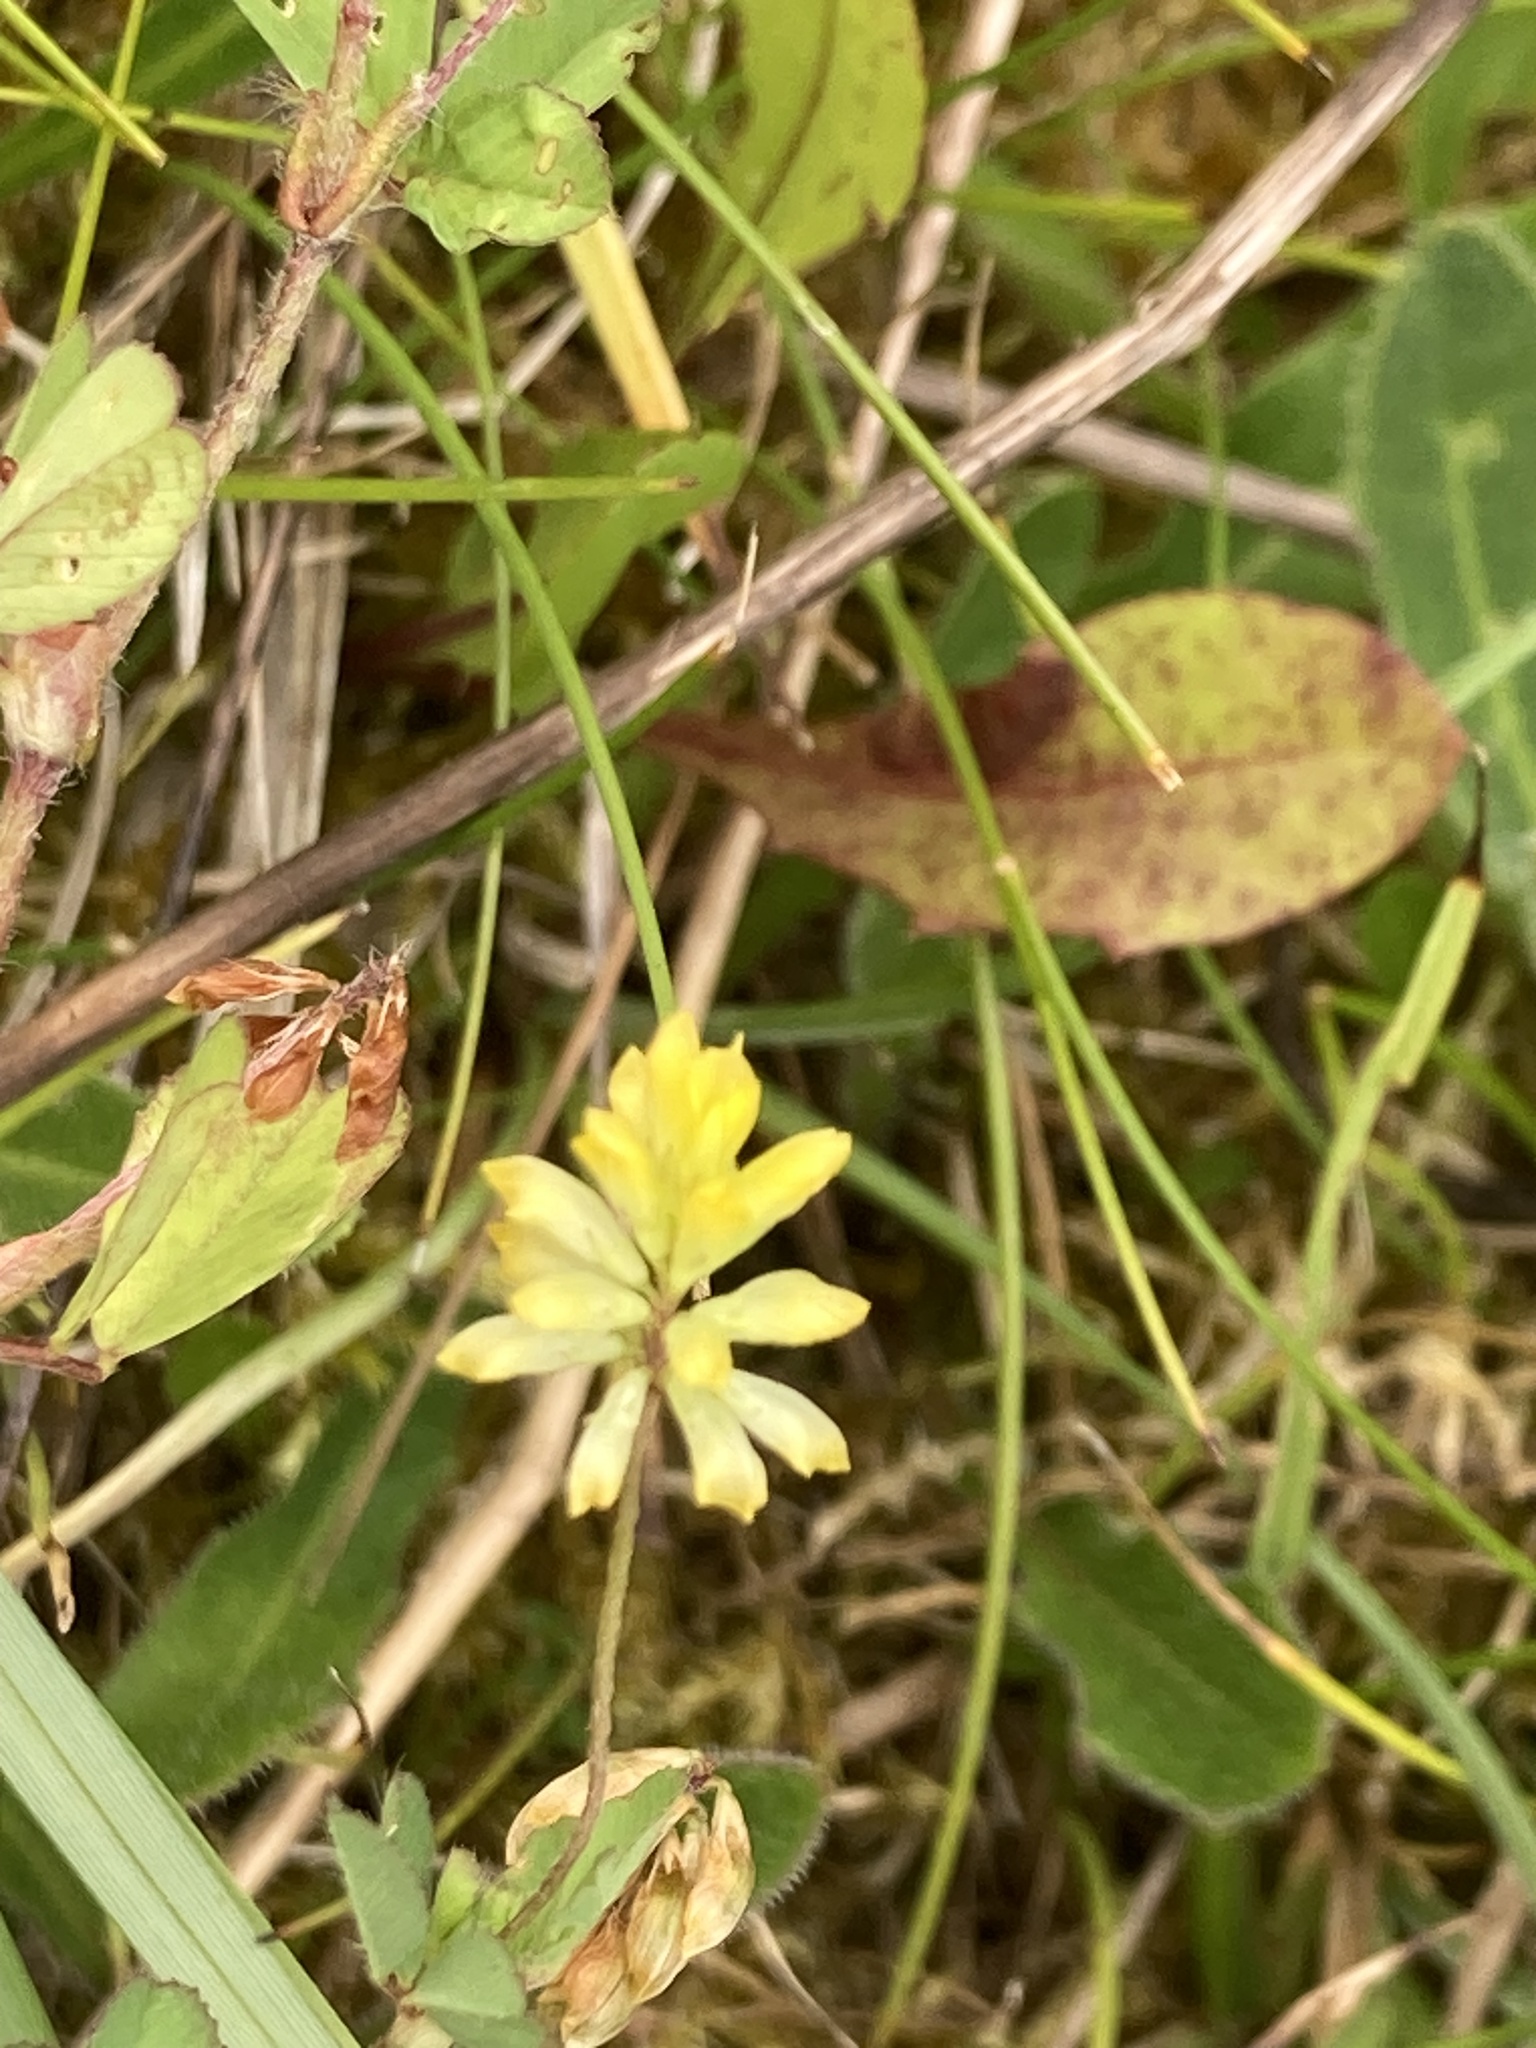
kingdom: Plantae
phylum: Tracheophyta
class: Magnoliopsida
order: Fabales
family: Fabaceae
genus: Trifolium
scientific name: Trifolium dubium
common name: Suckling clover
